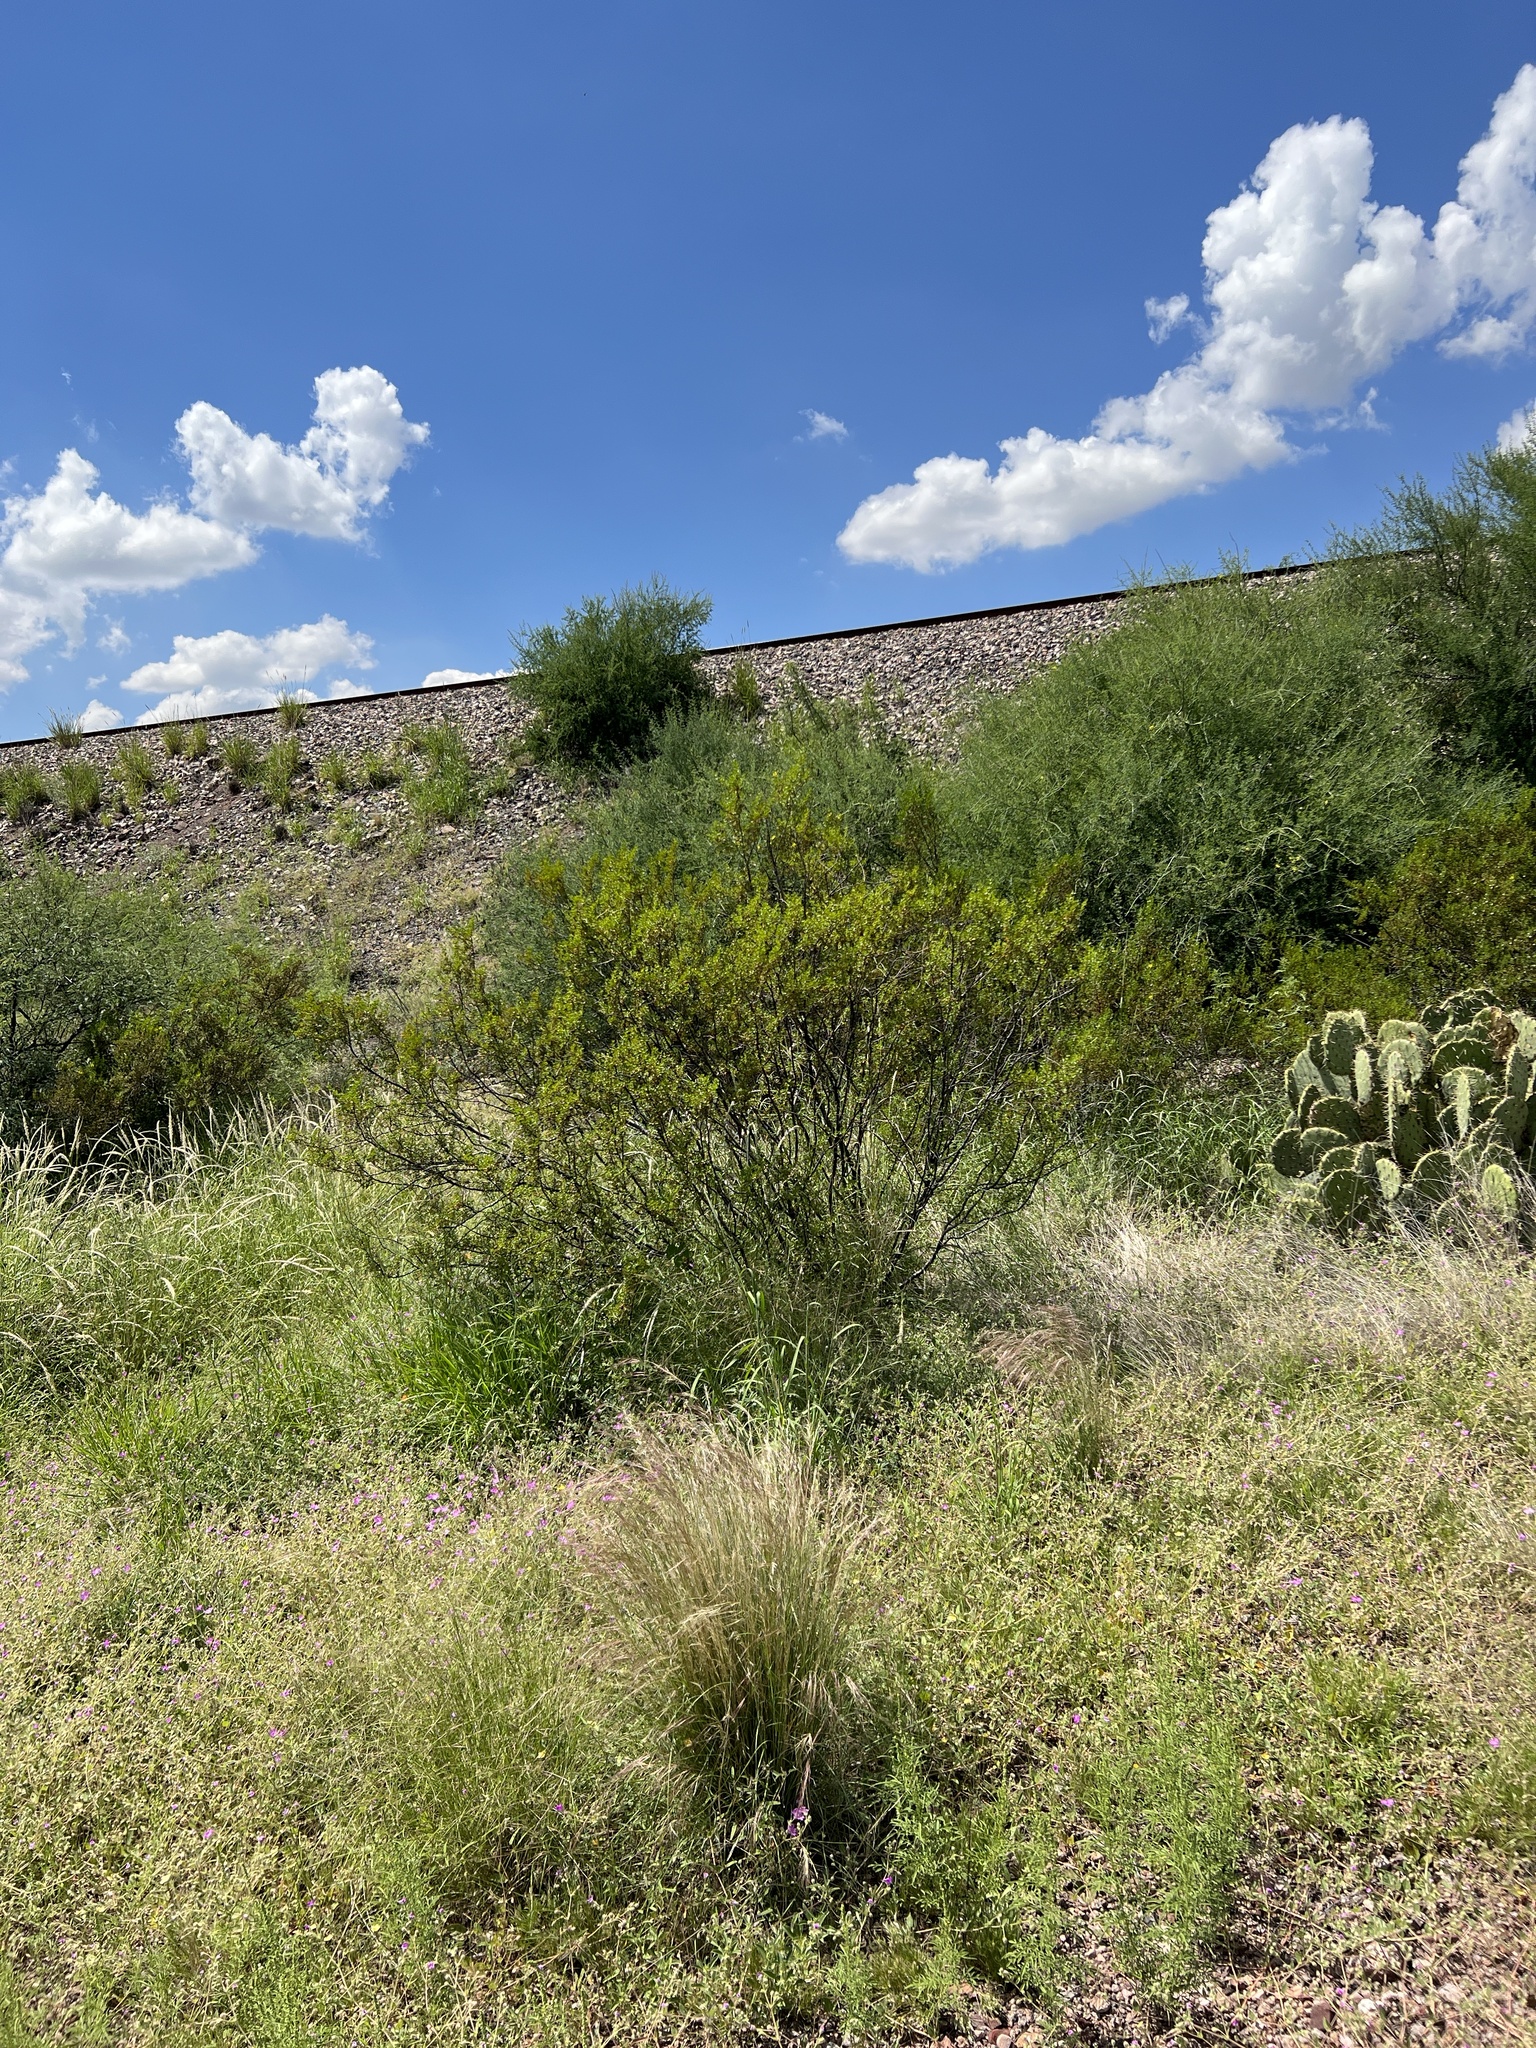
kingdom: Plantae
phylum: Tracheophyta
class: Magnoliopsida
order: Zygophyllales
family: Zygophyllaceae
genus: Larrea
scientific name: Larrea tridentata
